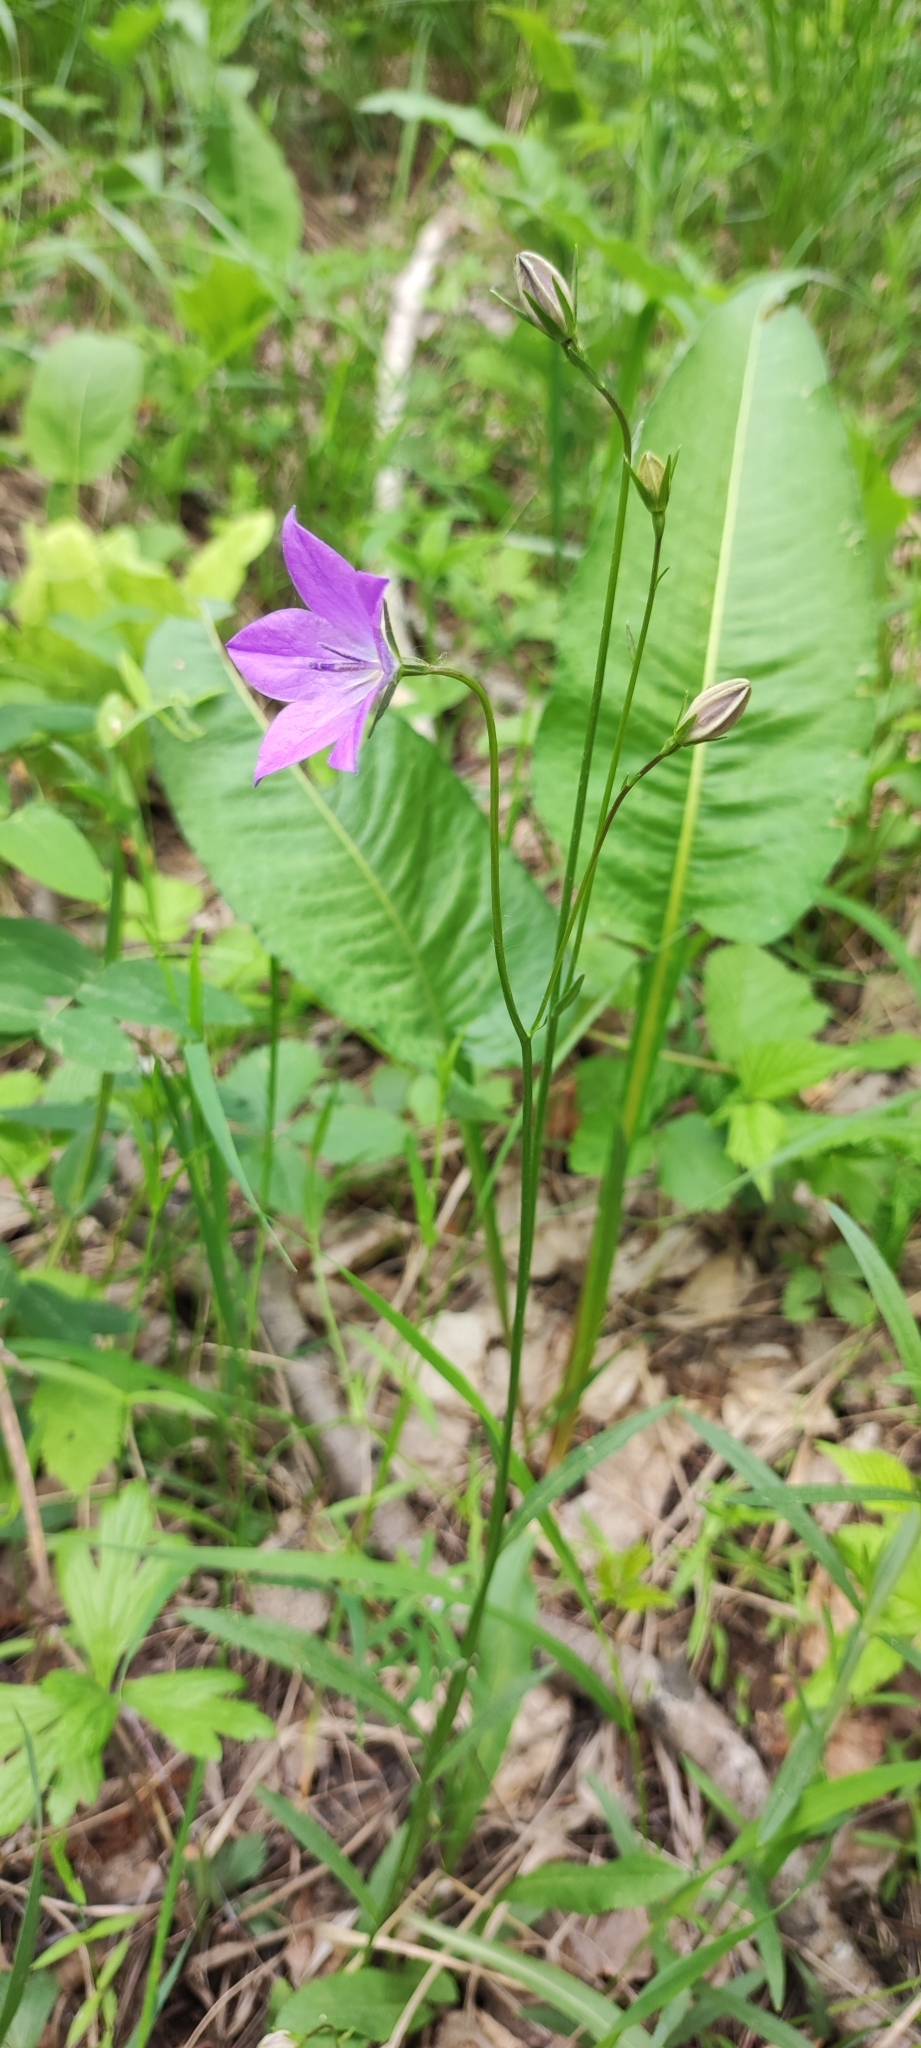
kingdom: Plantae
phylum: Tracheophyta
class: Magnoliopsida
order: Asterales
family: Campanulaceae
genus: Campanula
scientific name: Campanula stevenii
